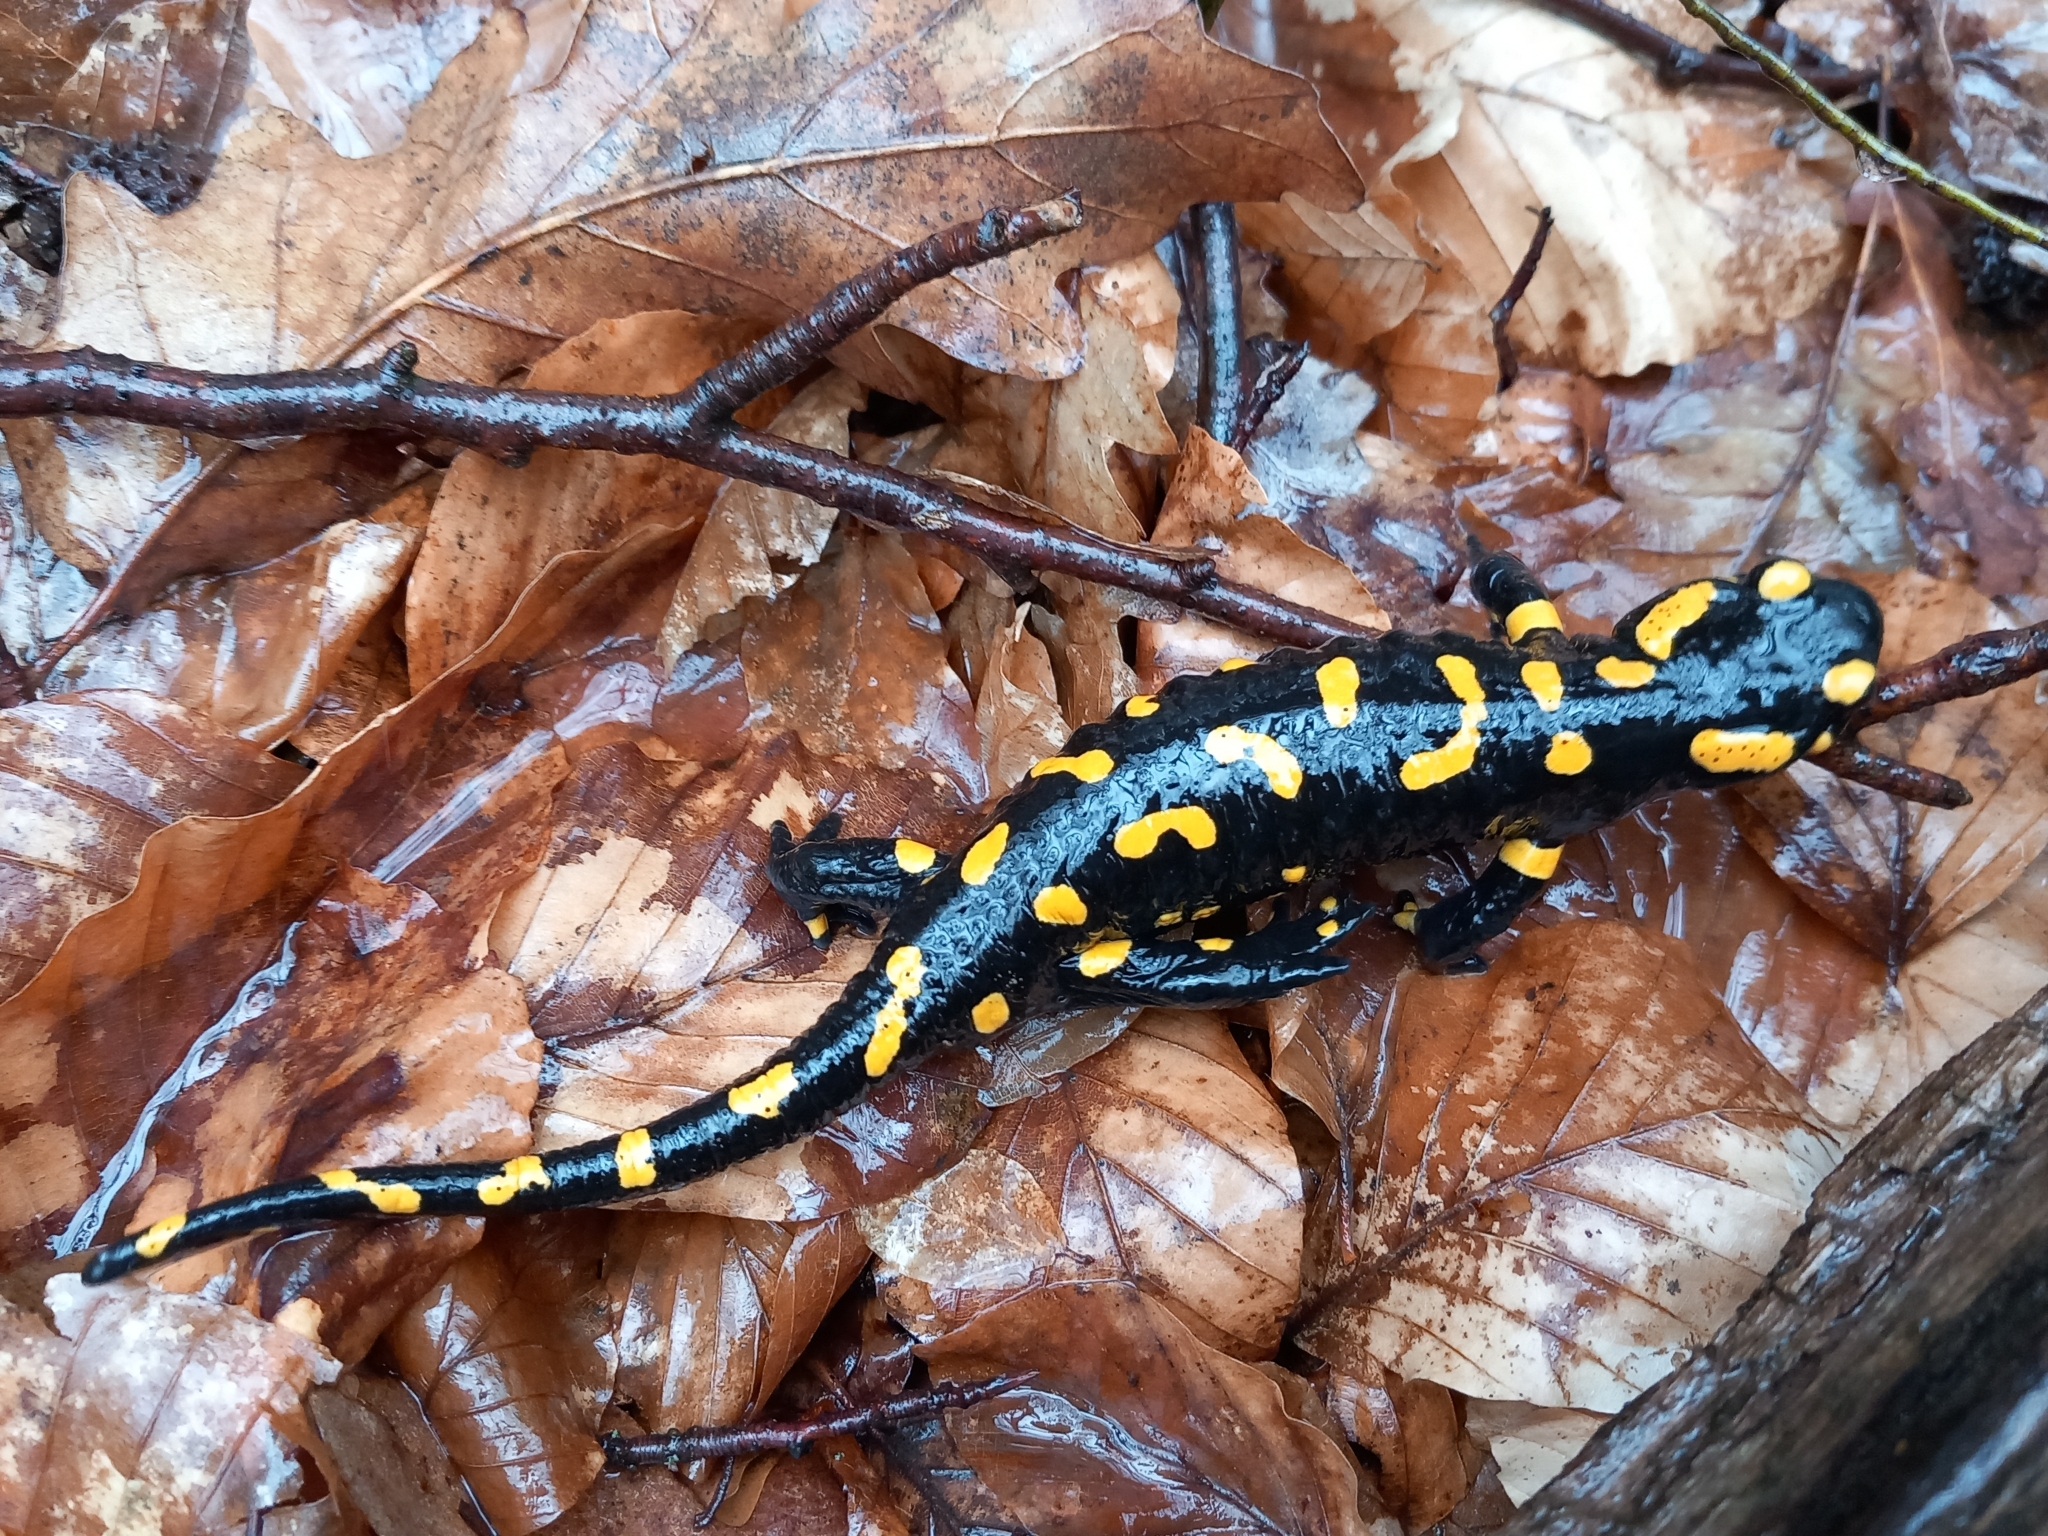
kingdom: Animalia
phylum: Chordata
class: Amphibia
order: Caudata
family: Salamandridae
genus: Salamandra
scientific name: Salamandra salamandra
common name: Fire salamander
